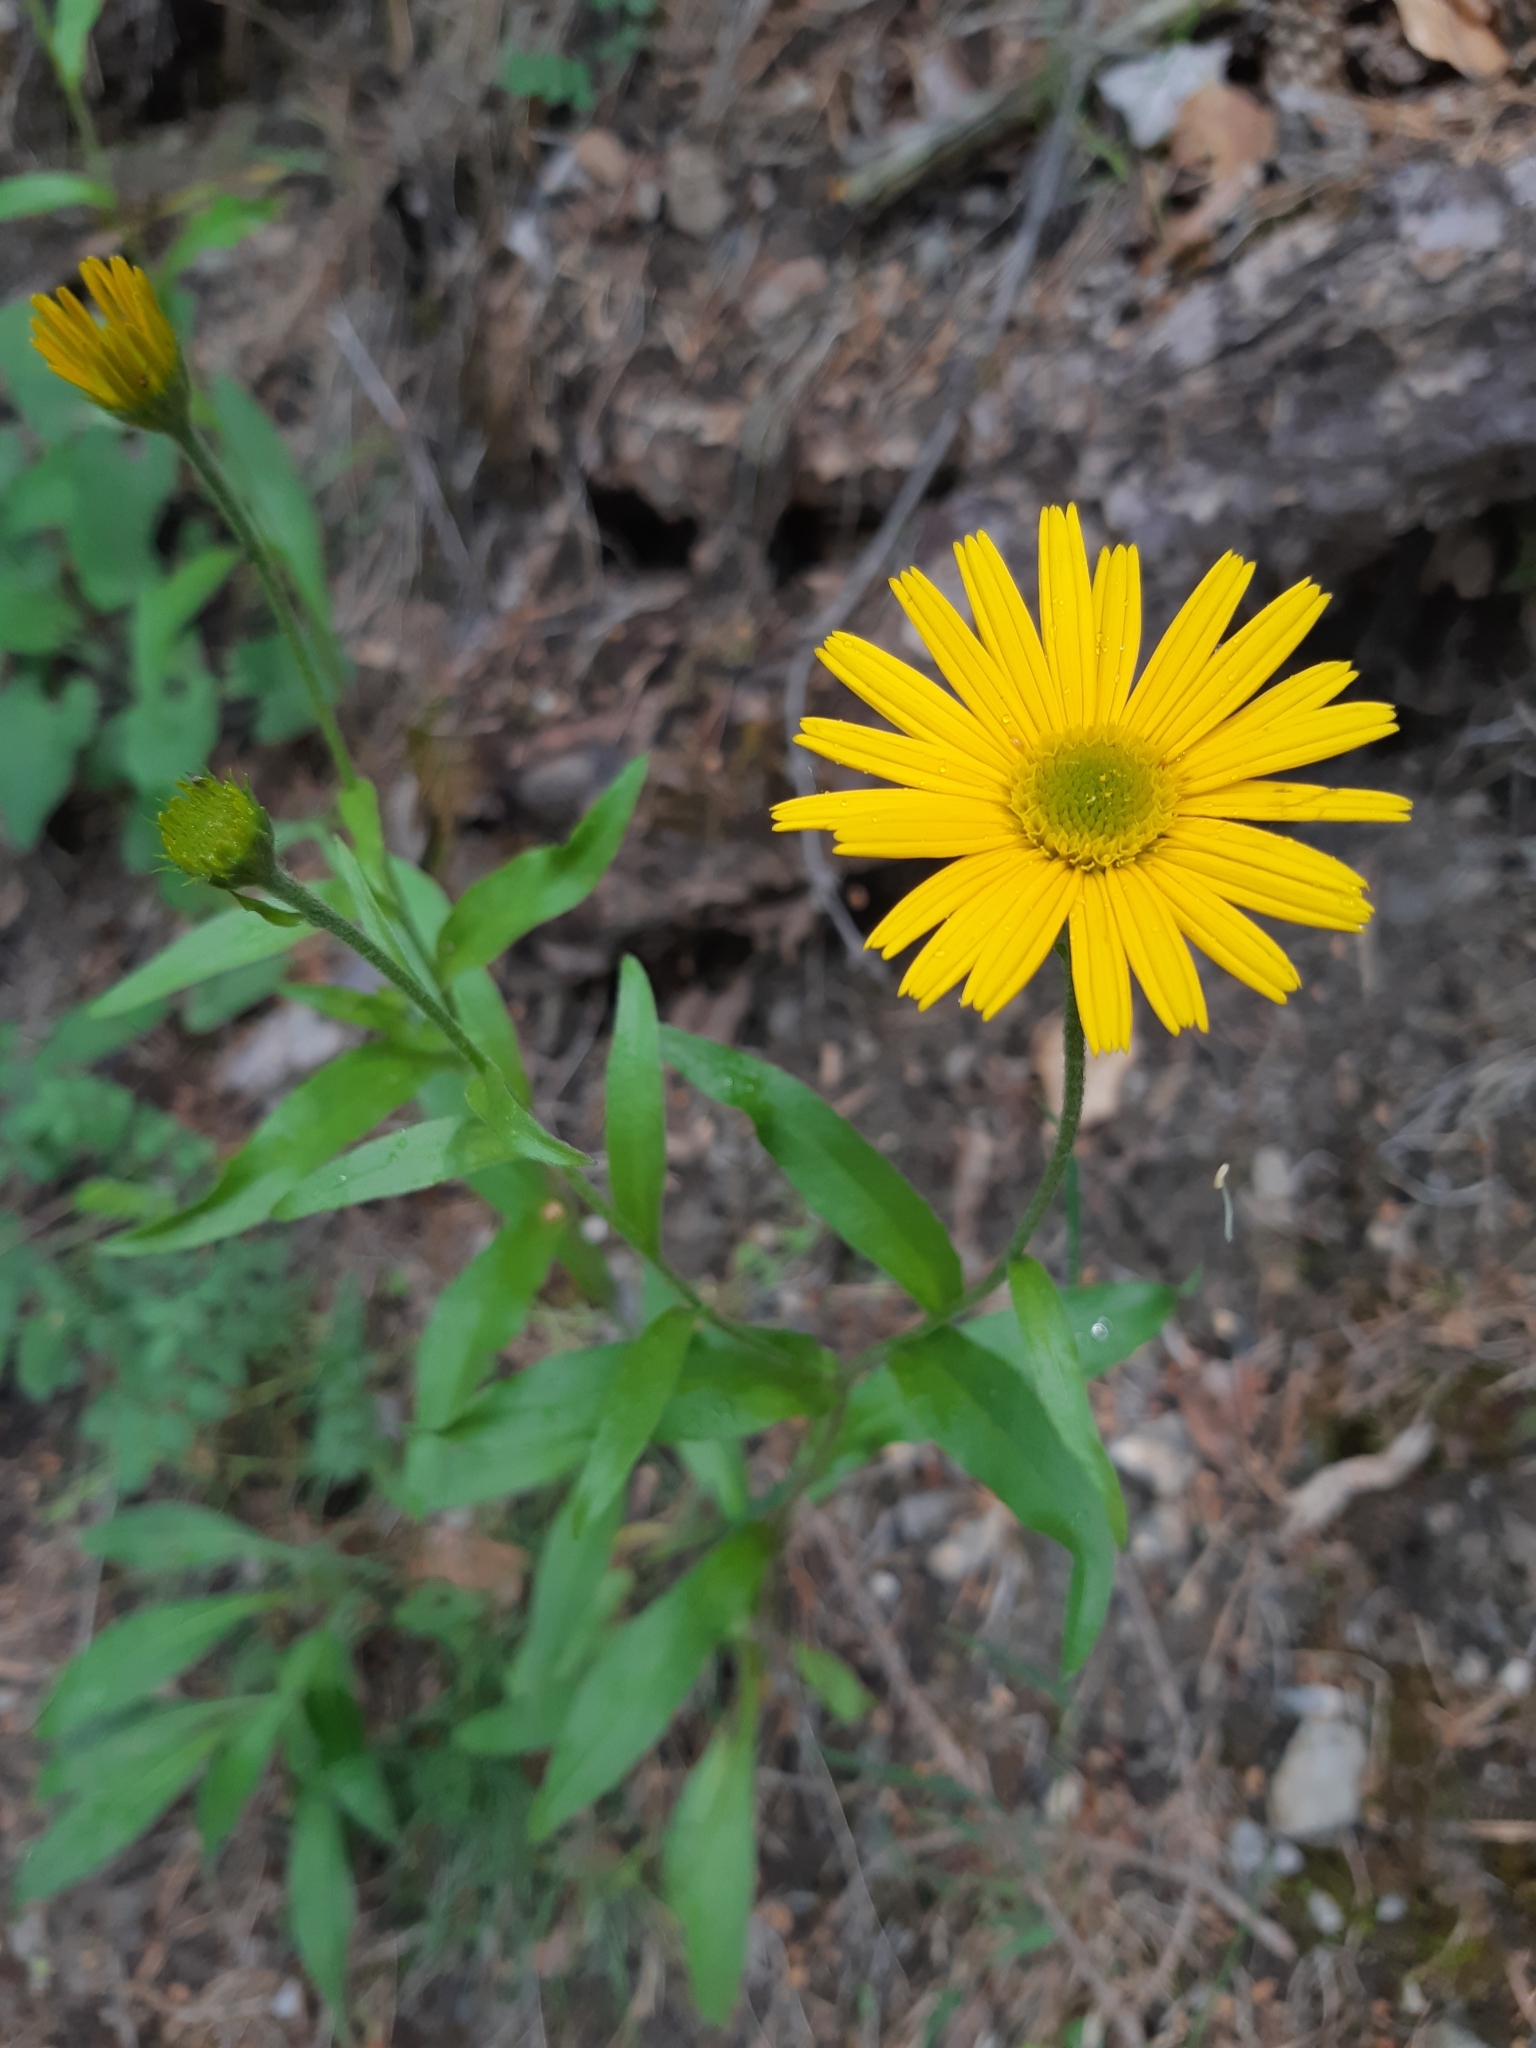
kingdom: Plantae
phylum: Tracheophyta
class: Magnoliopsida
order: Asterales
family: Asteraceae
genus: Buphthalmum
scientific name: Buphthalmum salicifolium
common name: Willow-leaved yellow-oxeye
